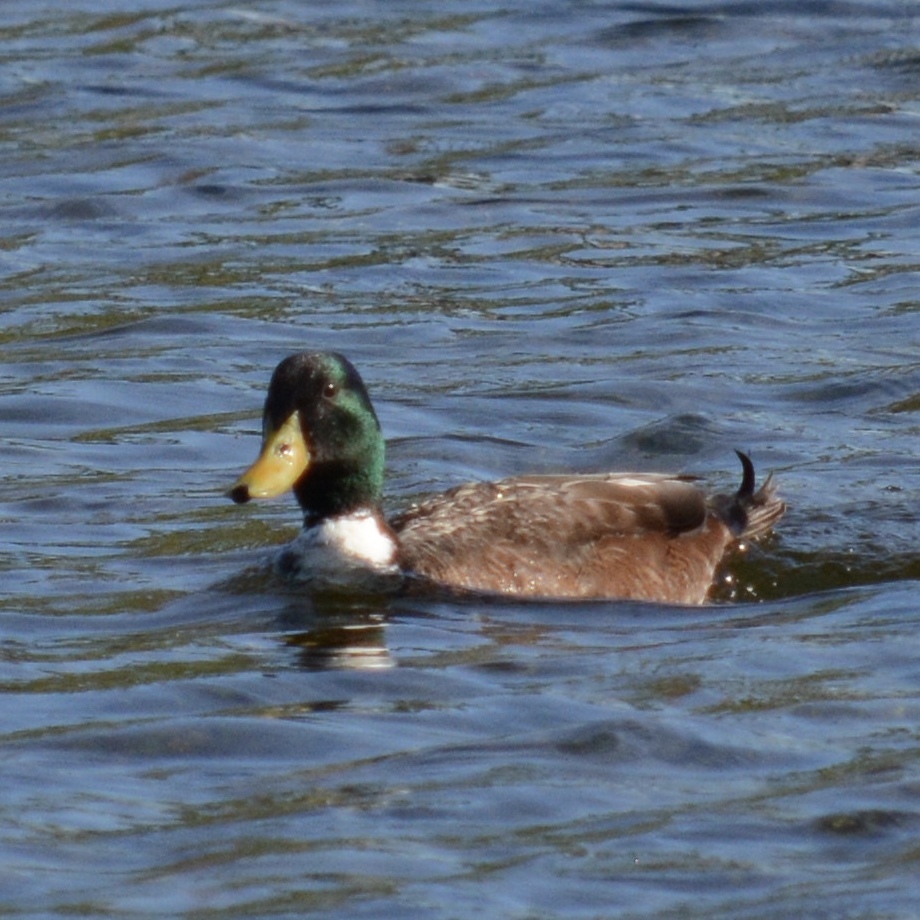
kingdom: Animalia
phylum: Chordata
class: Aves
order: Anseriformes
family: Anatidae
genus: Anas
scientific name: Anas platyrhynchos
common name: Mallard
